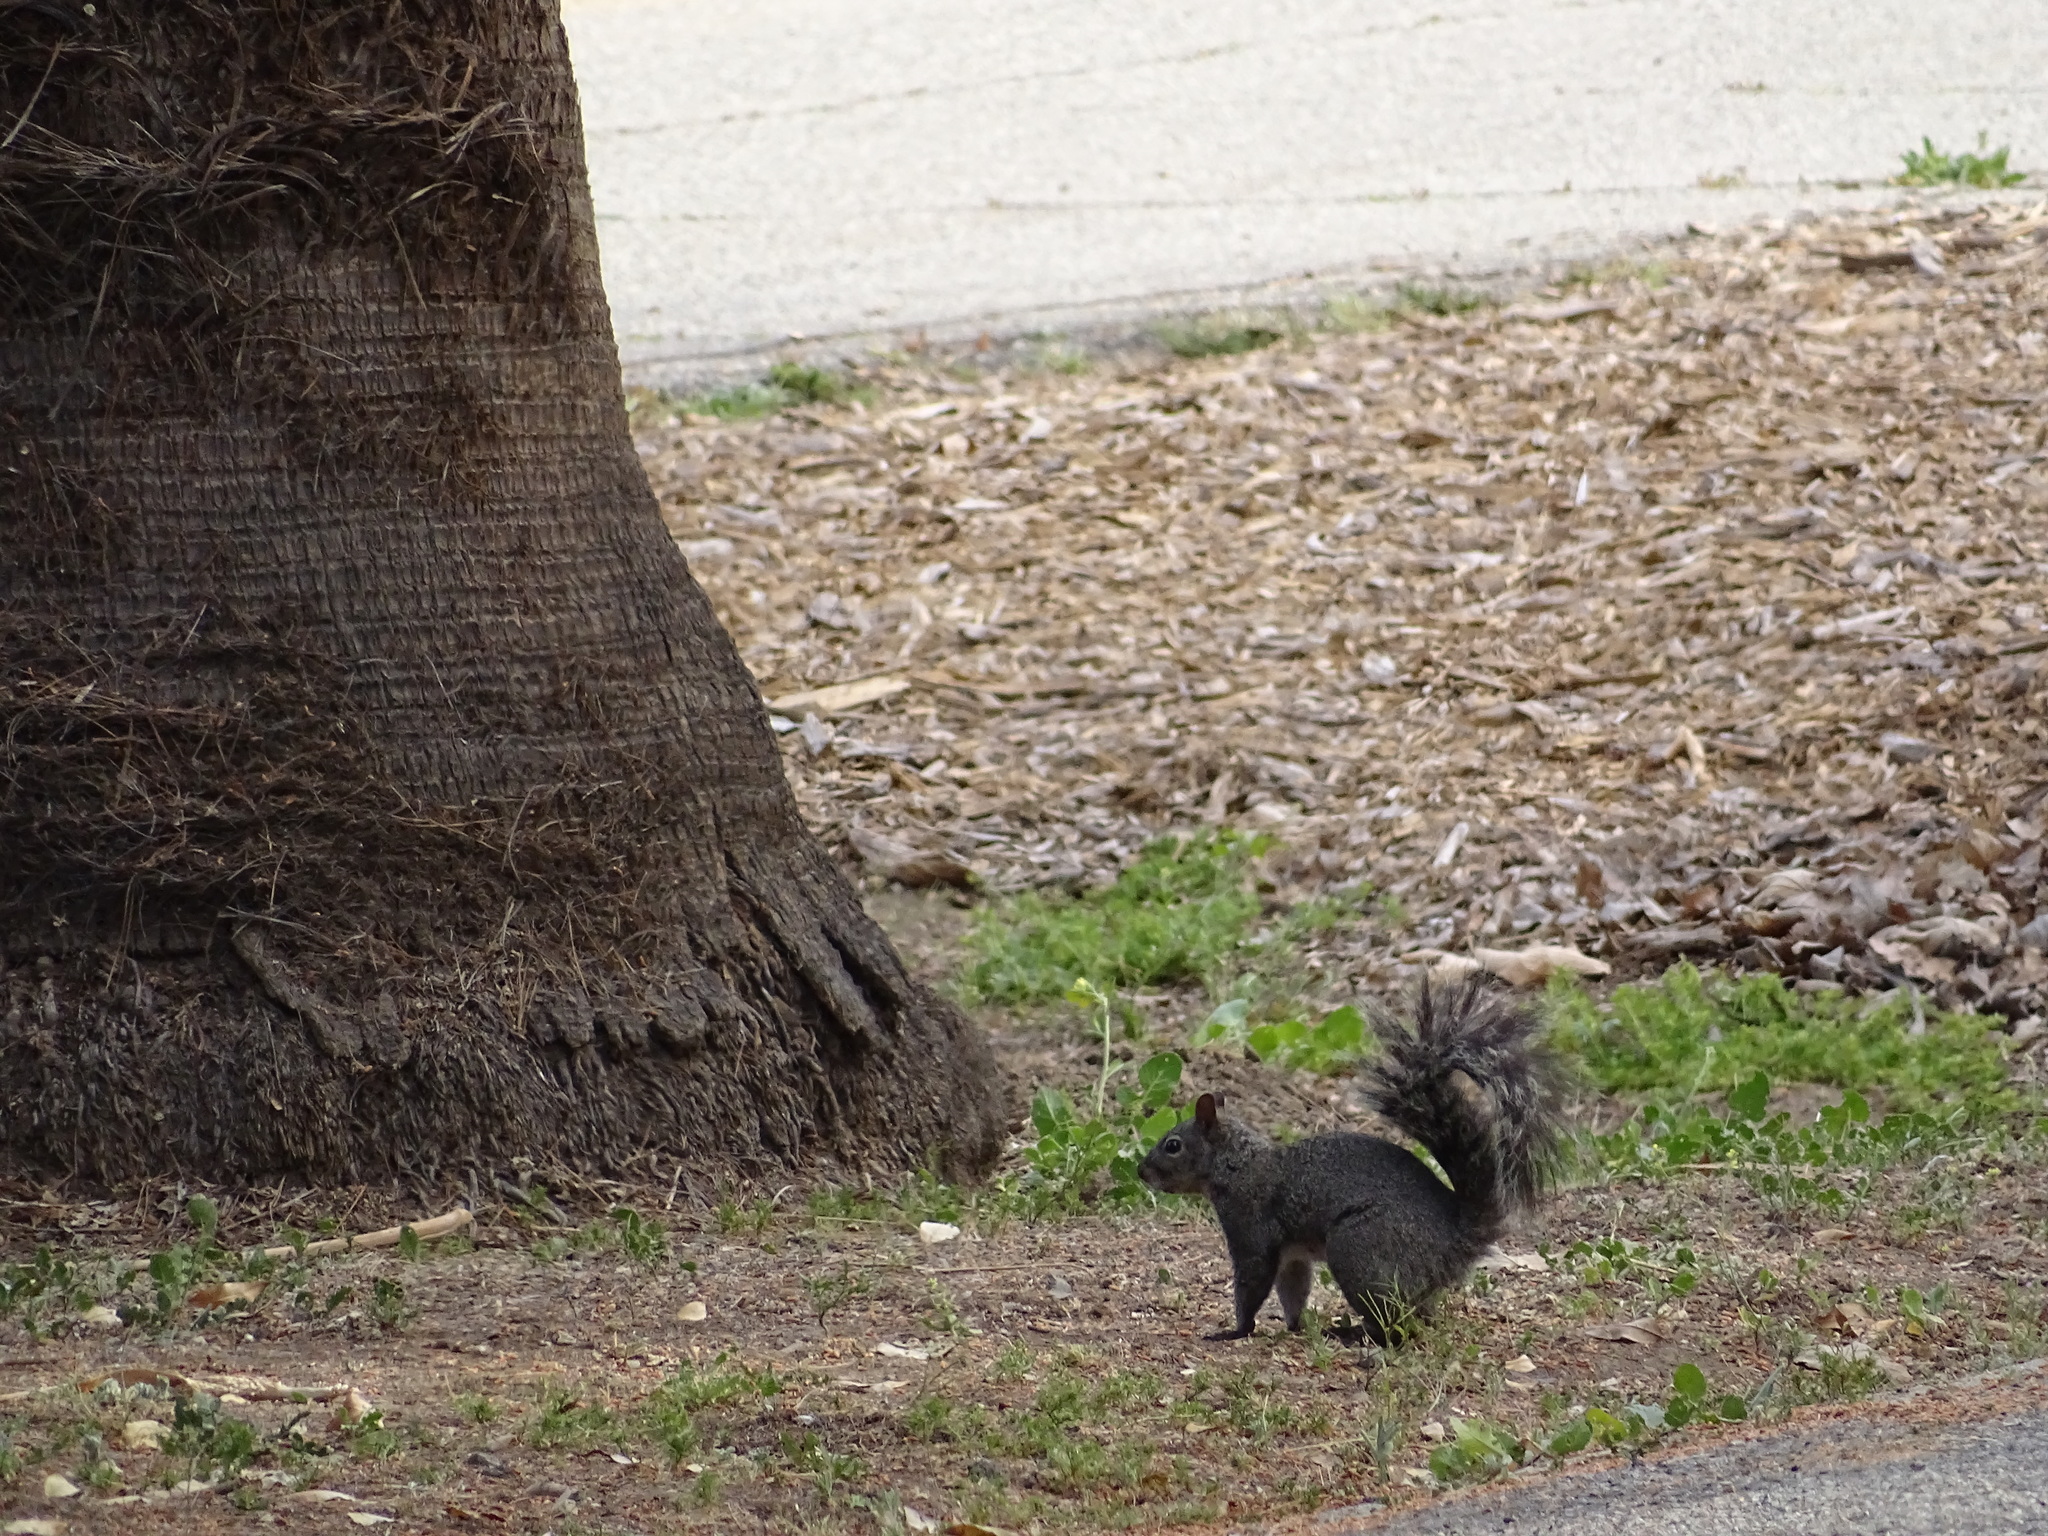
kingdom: Animalia
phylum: Chordata
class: Mammalia
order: Rodentia
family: Sciuridae
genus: Sciurus
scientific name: Sciurus griseus
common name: Western gray squirrel
